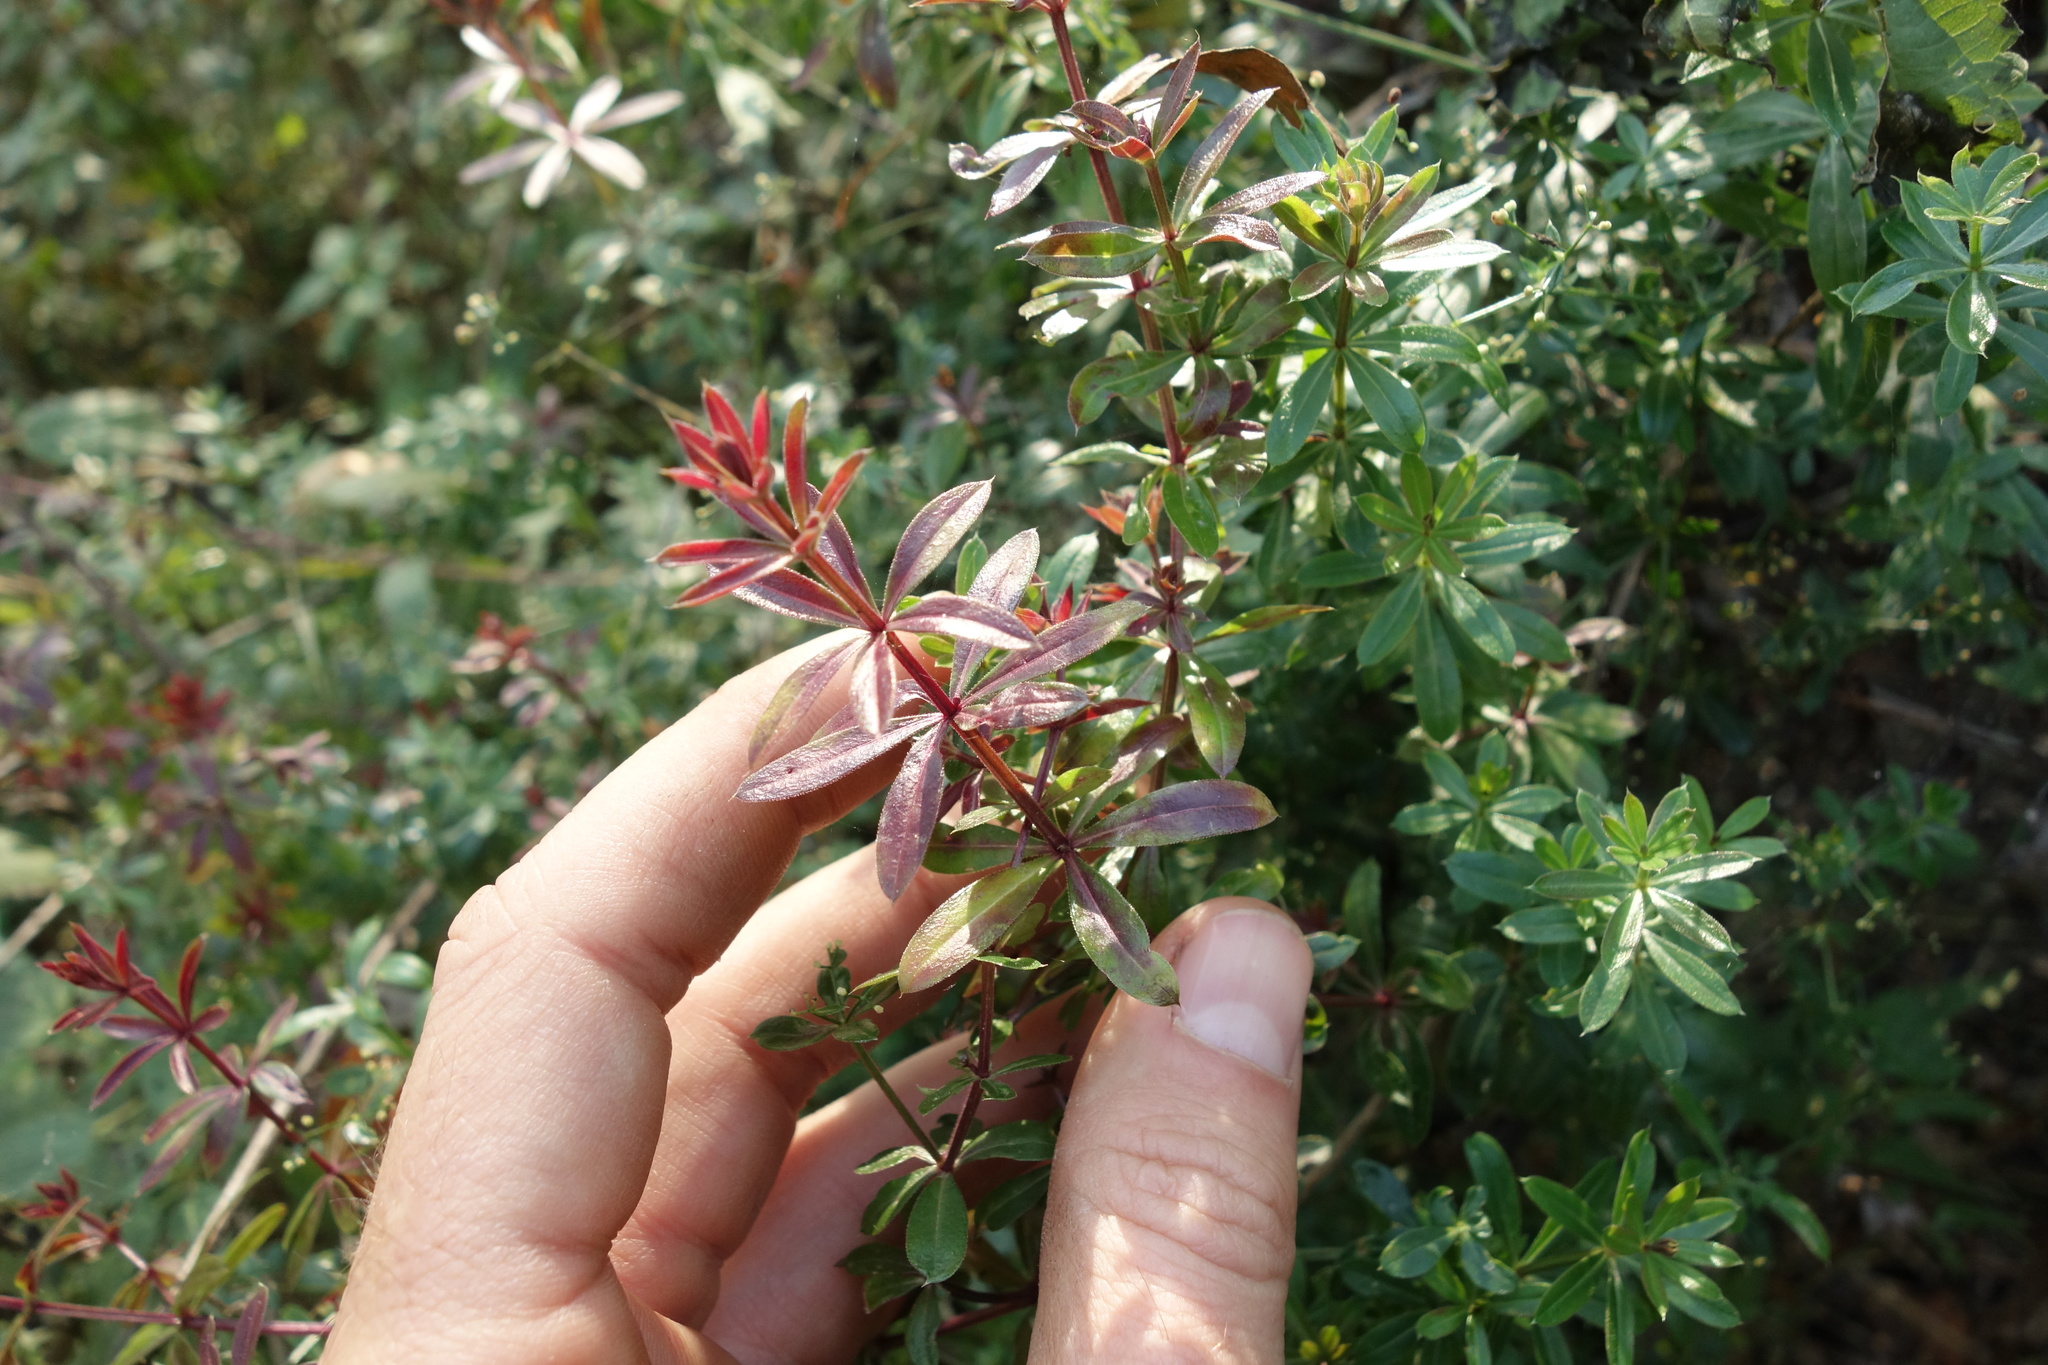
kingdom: Plantae
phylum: Tracheophyta
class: Magnoliopsida
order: Gentianales
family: Rubiaceae
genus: Galium
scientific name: Galium rivale
